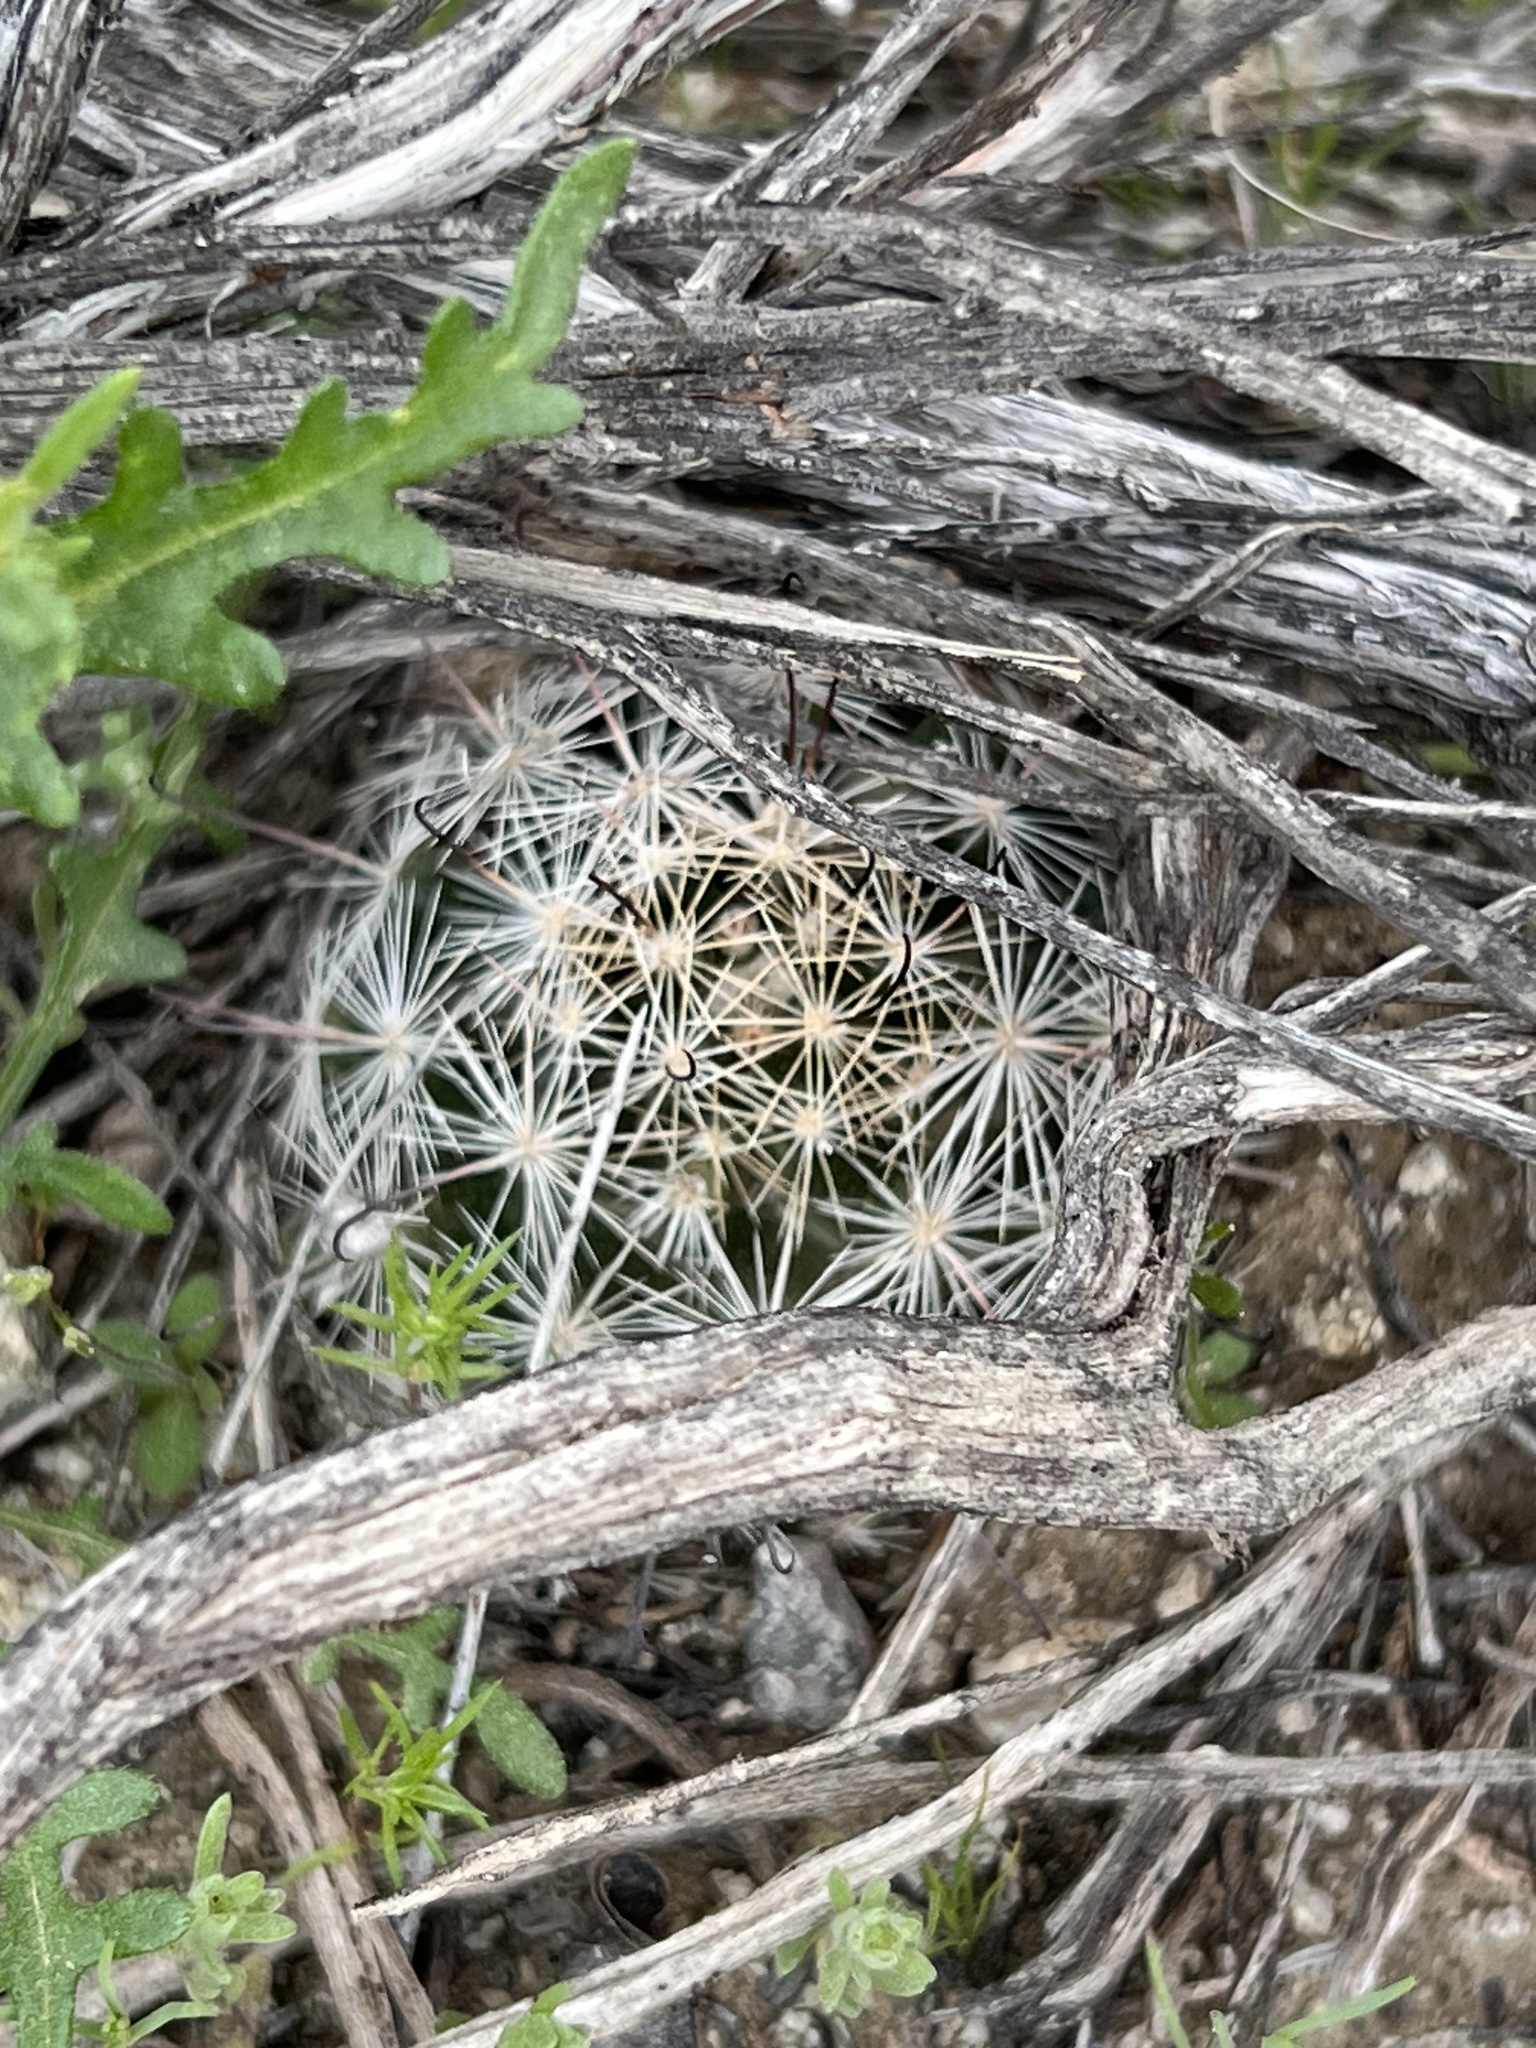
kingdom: Plantae
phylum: Tracheophyta
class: Magnoliopsida
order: Caryophyllales
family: Cactaceae
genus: Cochemiea
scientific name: Cochemiea tetrancistra
